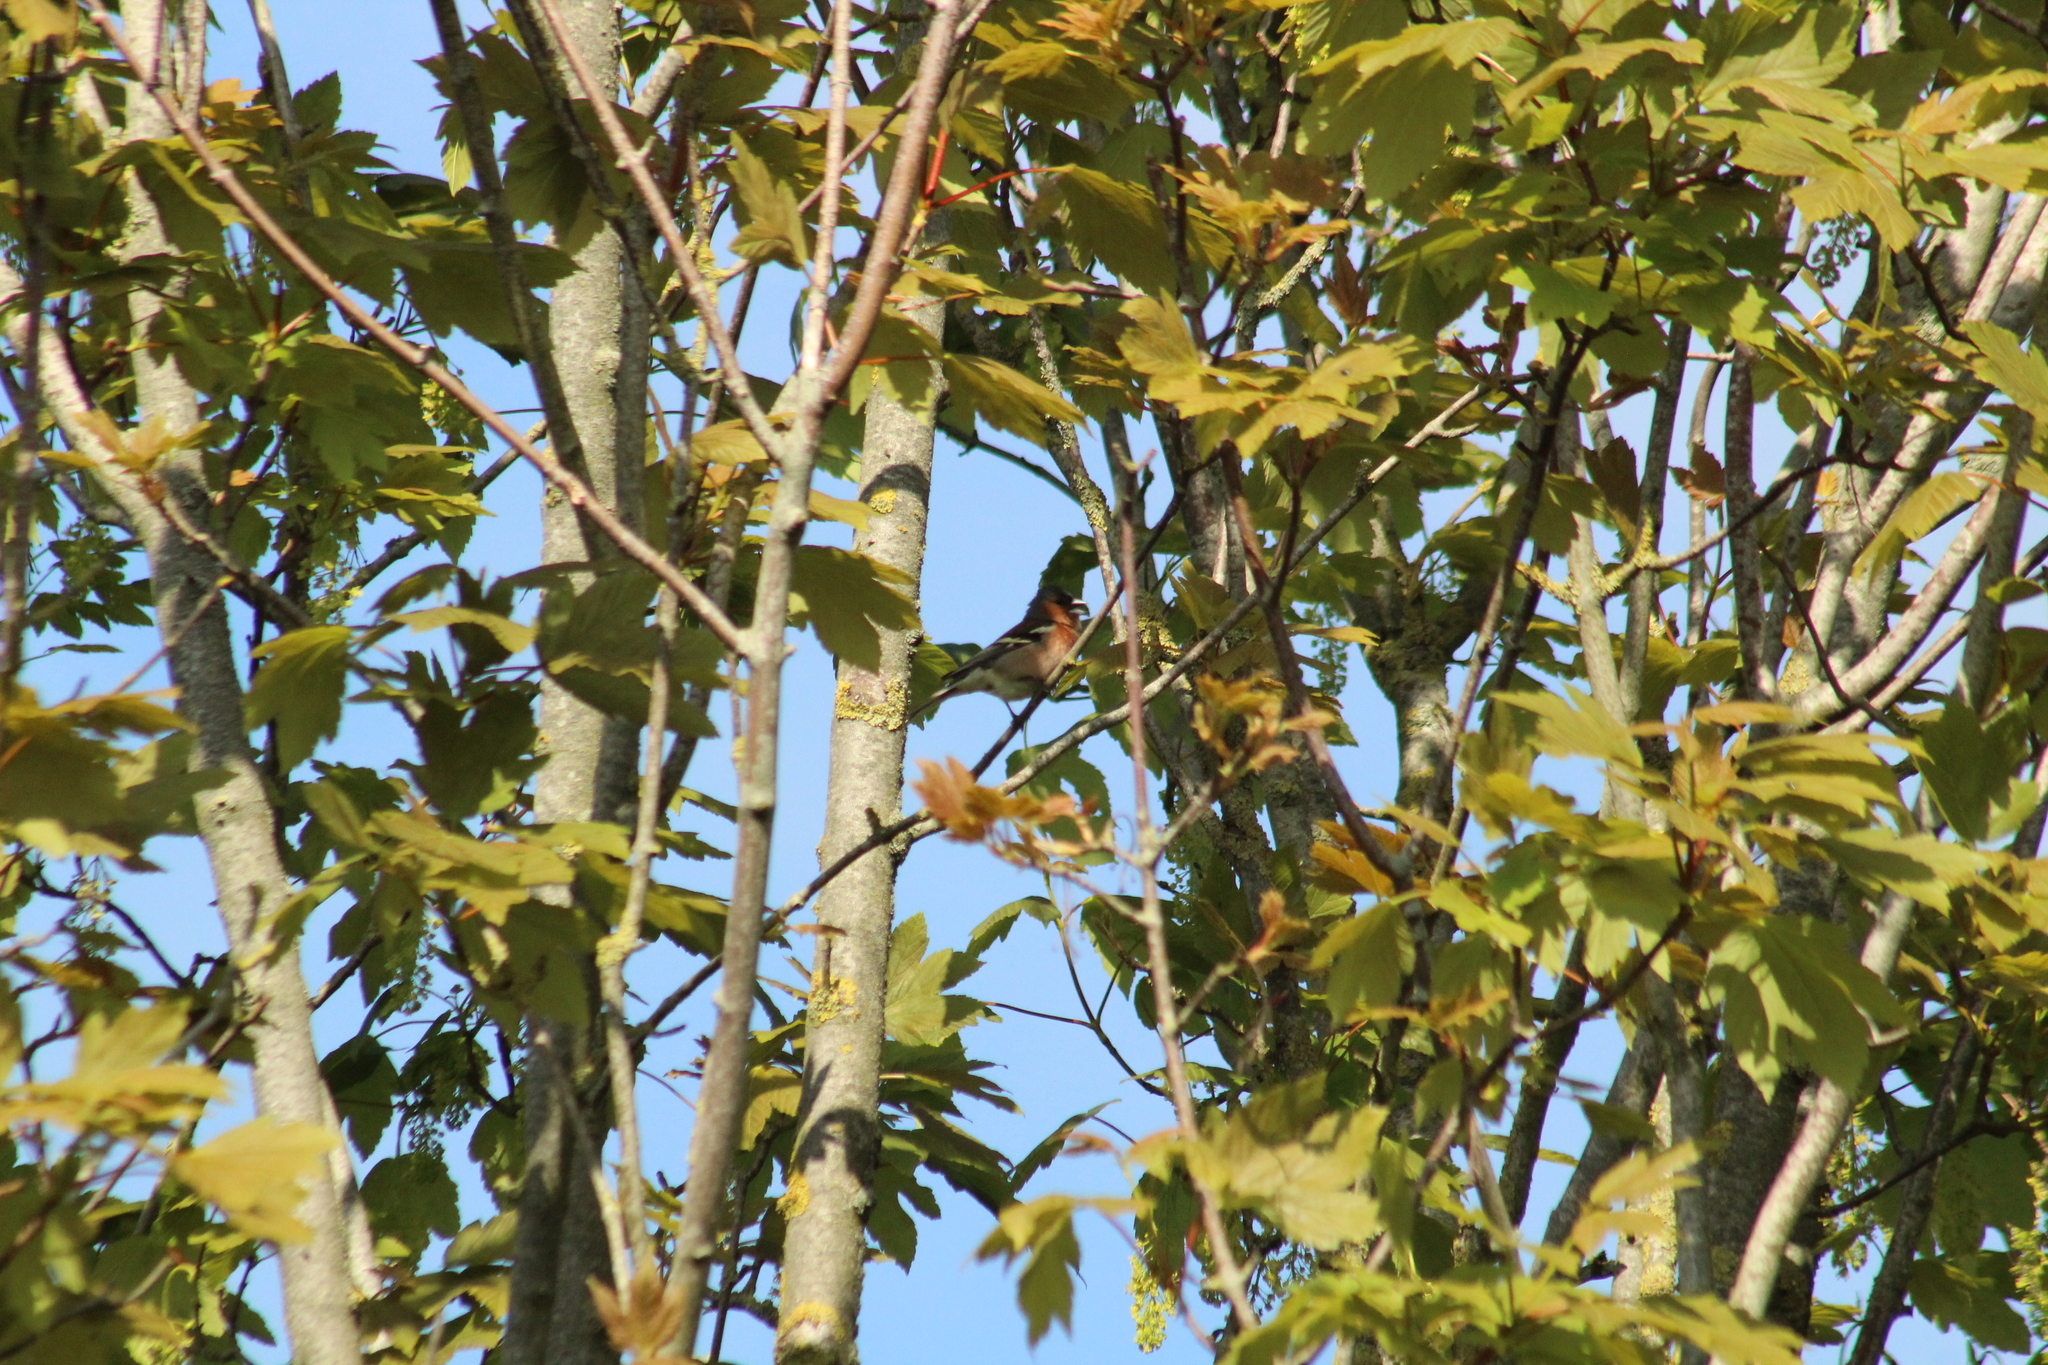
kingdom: Animalia
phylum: Chordata
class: Aves
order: Passeriformes
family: Fringillidae
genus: Fringilla
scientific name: Fringilla coelebs
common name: Common chaffinch
